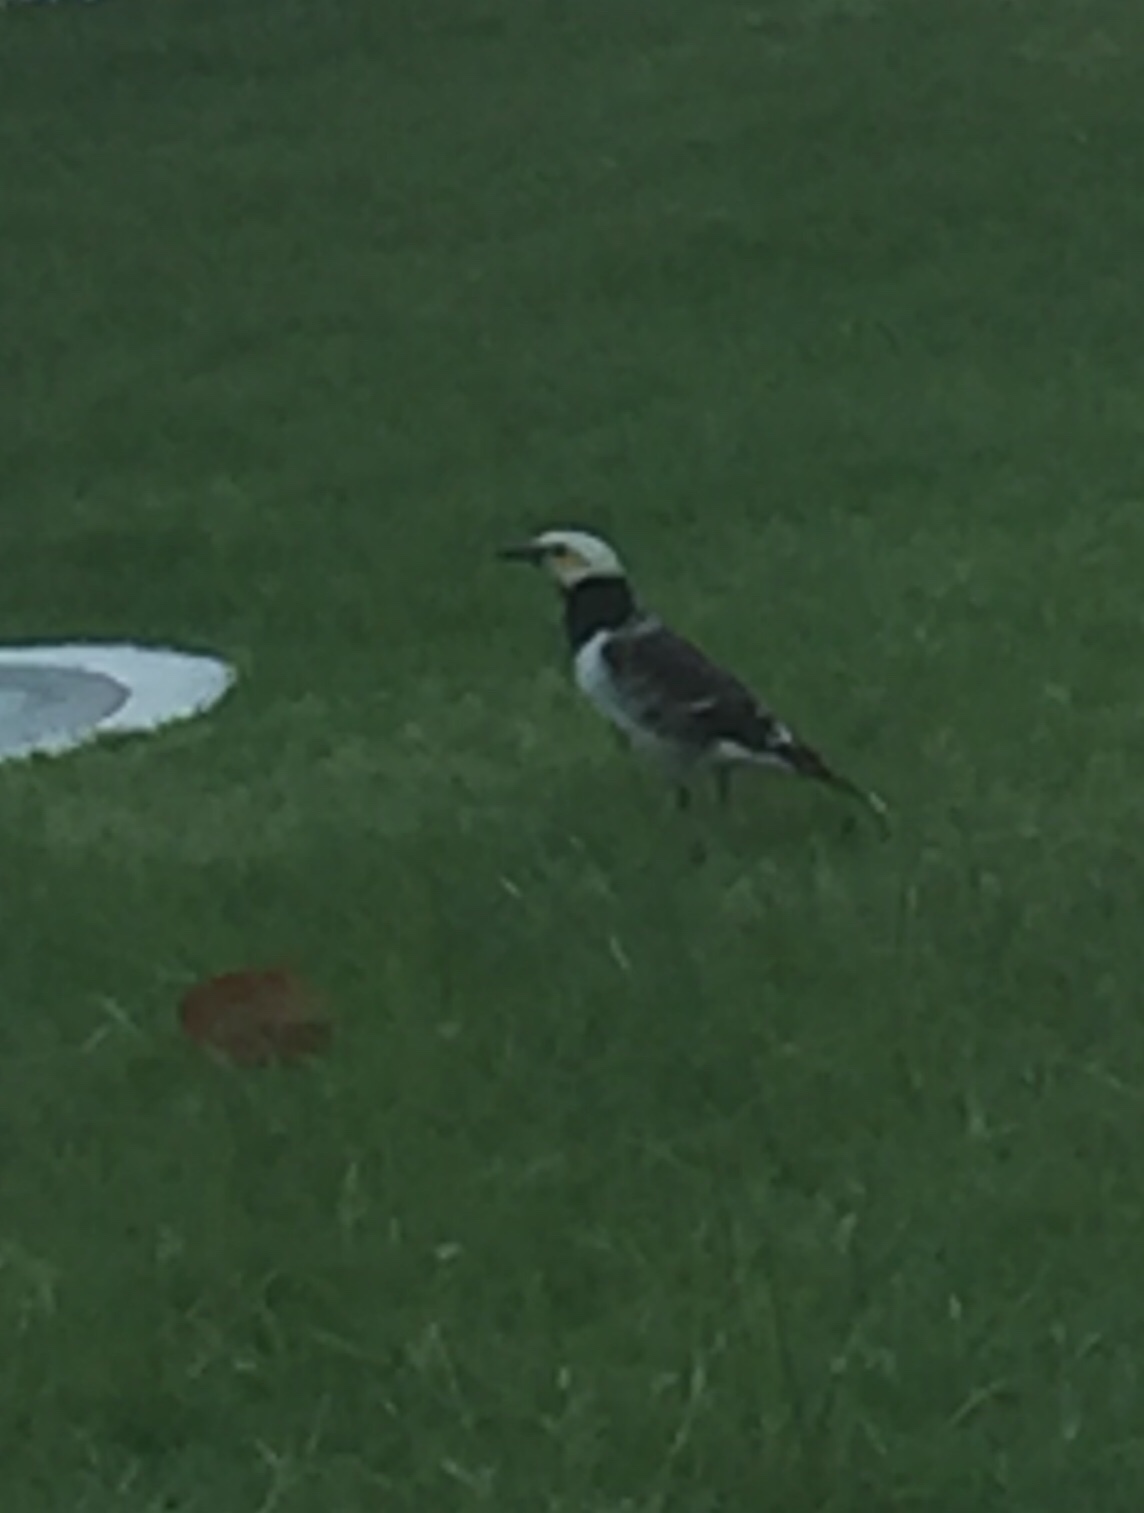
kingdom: Animalia
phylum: Chordata
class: Aves
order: Passeriformes
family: Sturnidae
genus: Gracupica
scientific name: Gracupica nigricollis
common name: Black-collared starling
